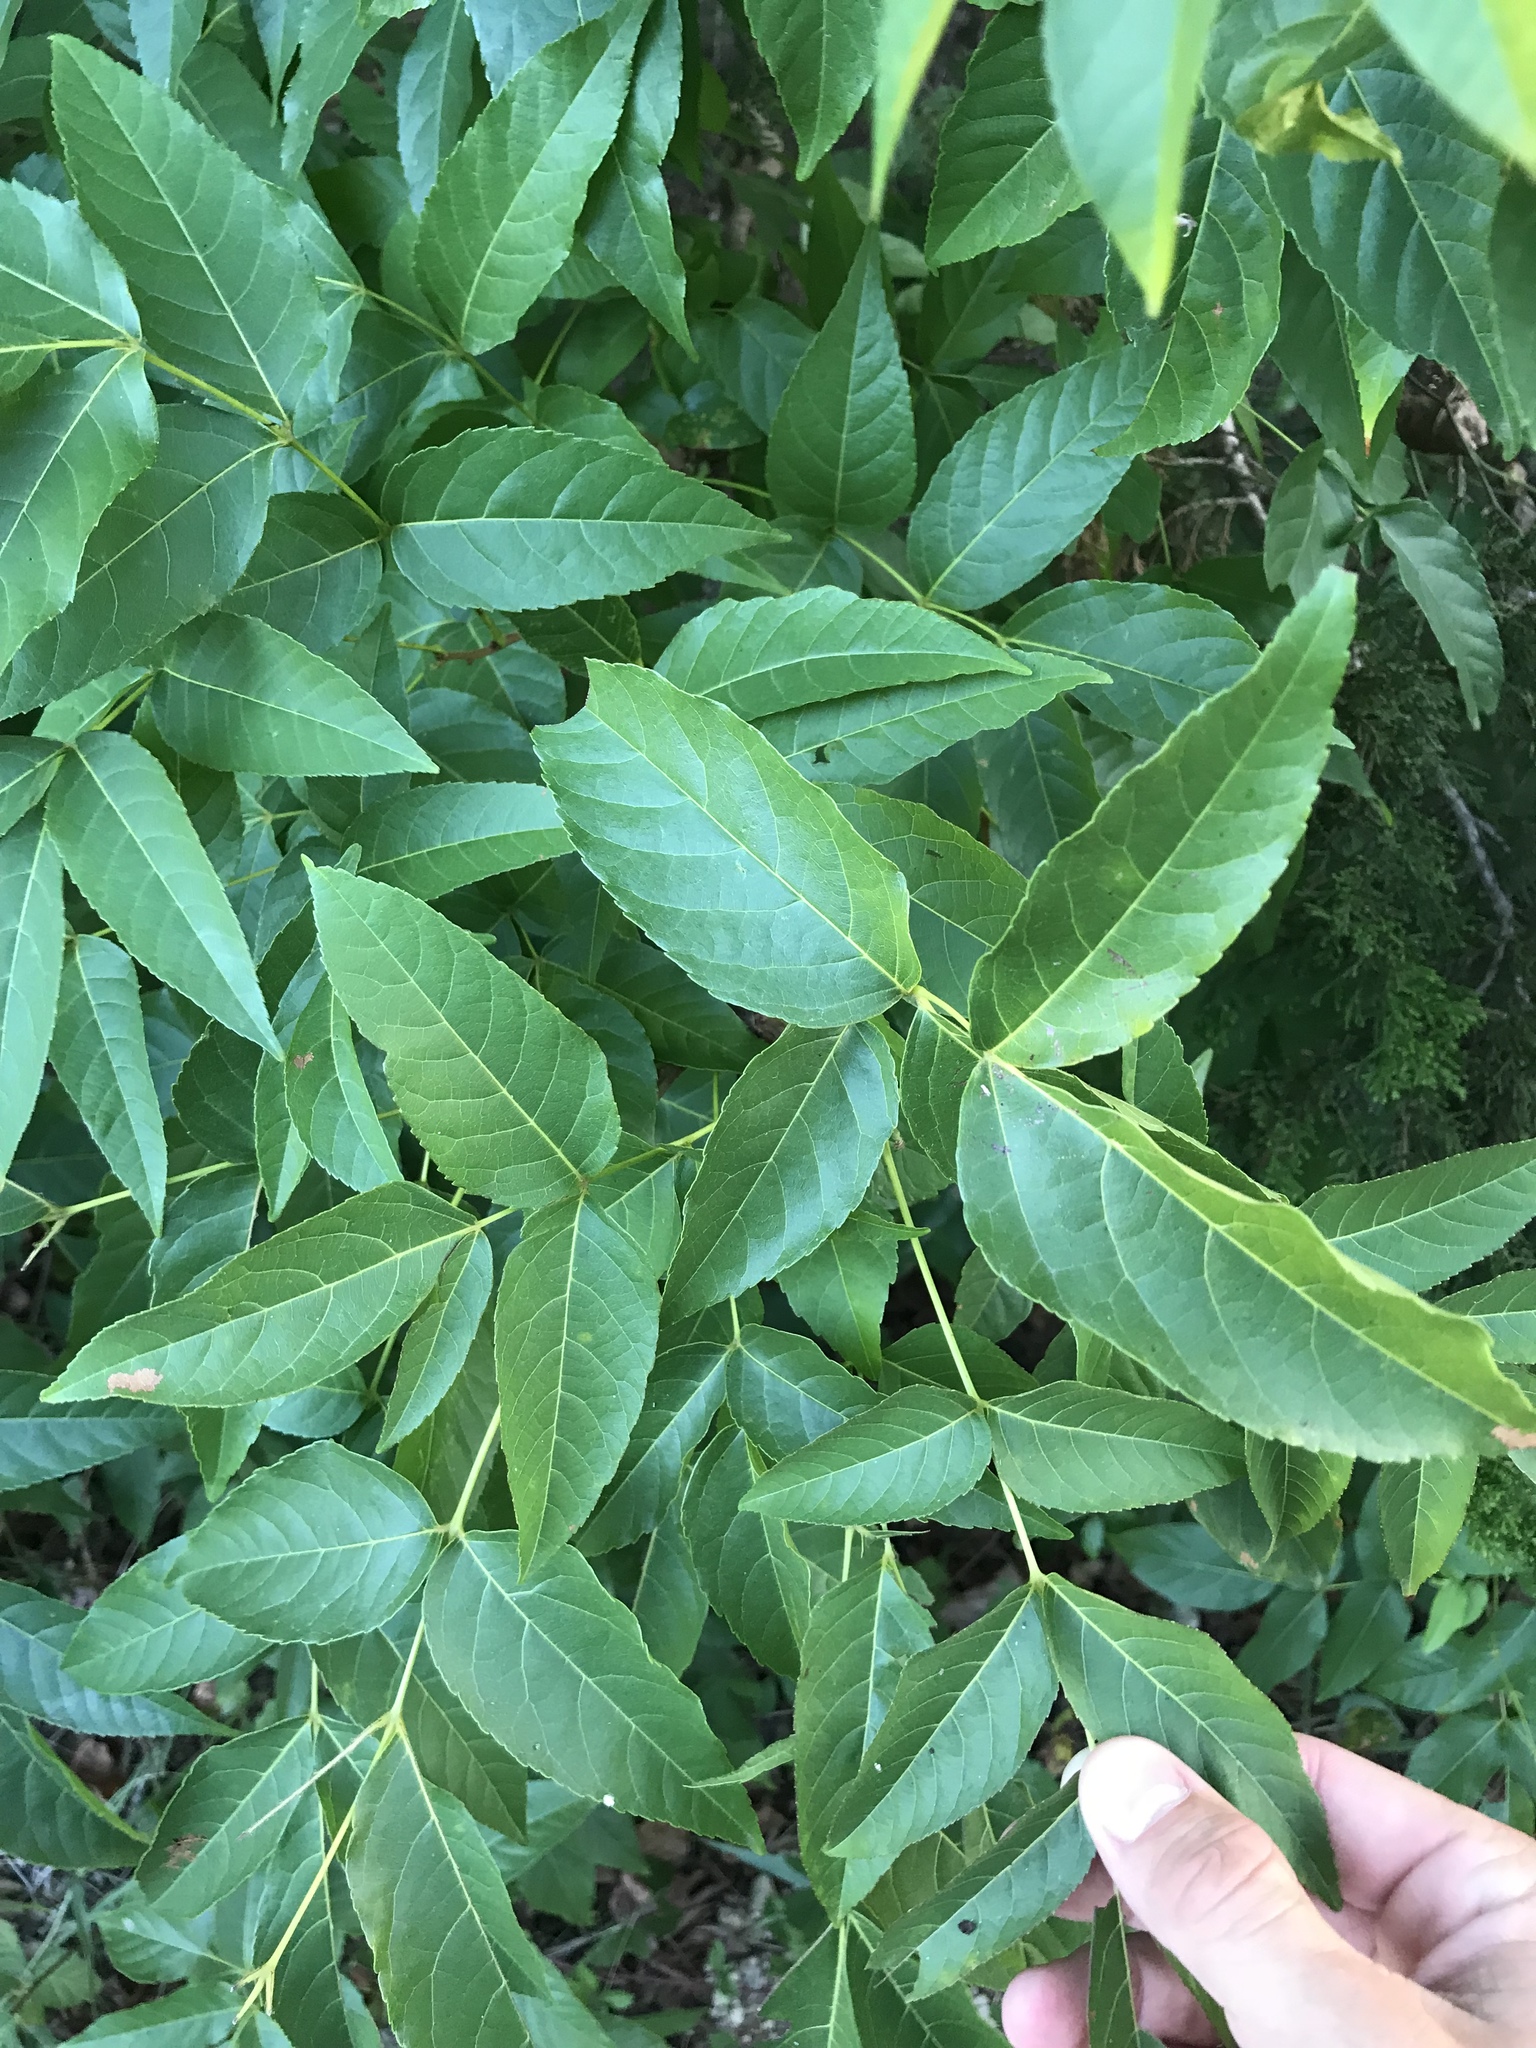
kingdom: Plantae
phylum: Tracheophyta
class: Magnoliopsida
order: Sapindales
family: Sapindaceae
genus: Ungnadia
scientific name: Ungnadia speciosa
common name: Texas-buckeye
